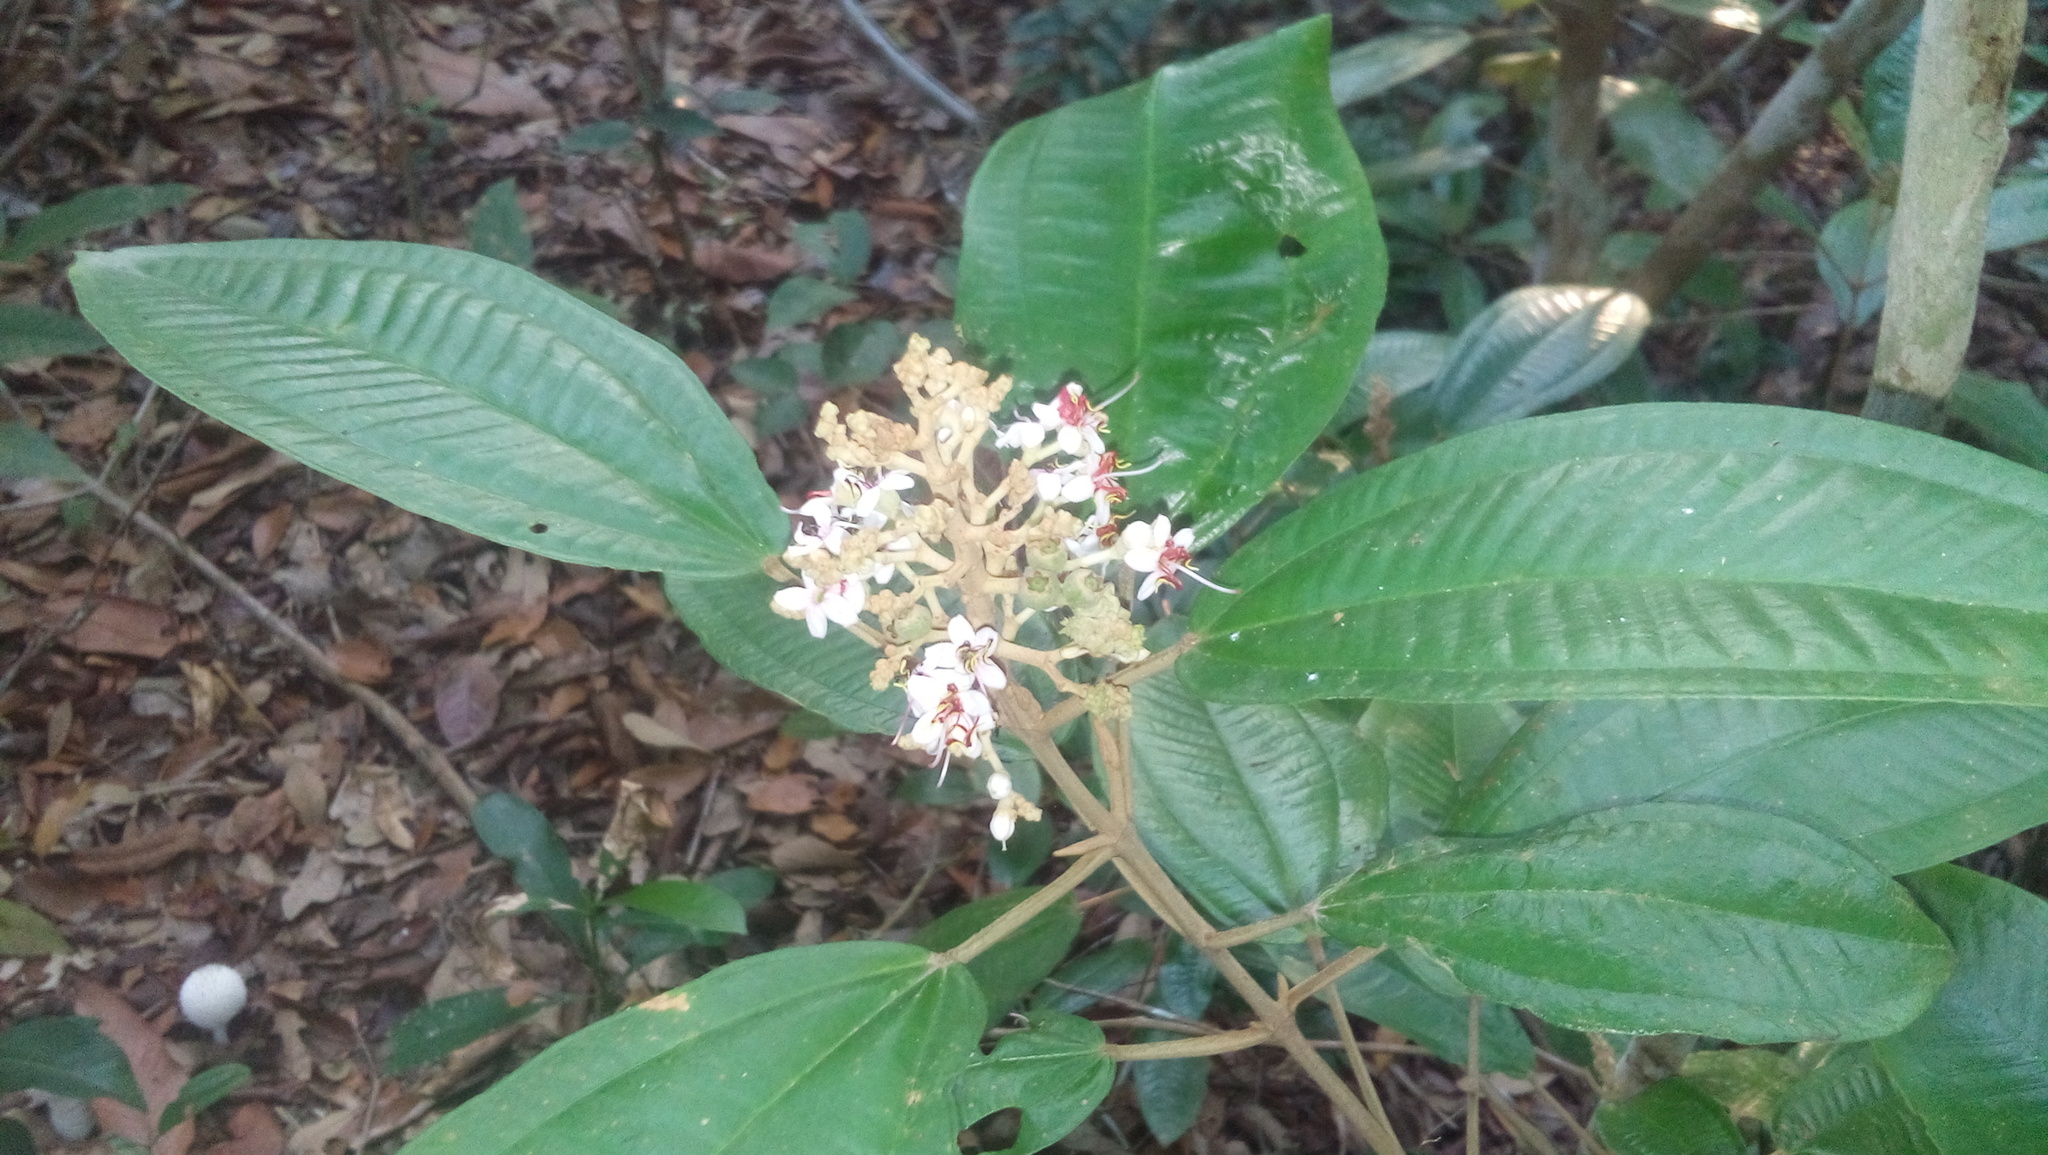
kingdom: Plantae
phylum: Tracheophyta
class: Magnoliopsida
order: Myrtales
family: Melastomataceae
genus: Miconia
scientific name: Miconia stenostachya
